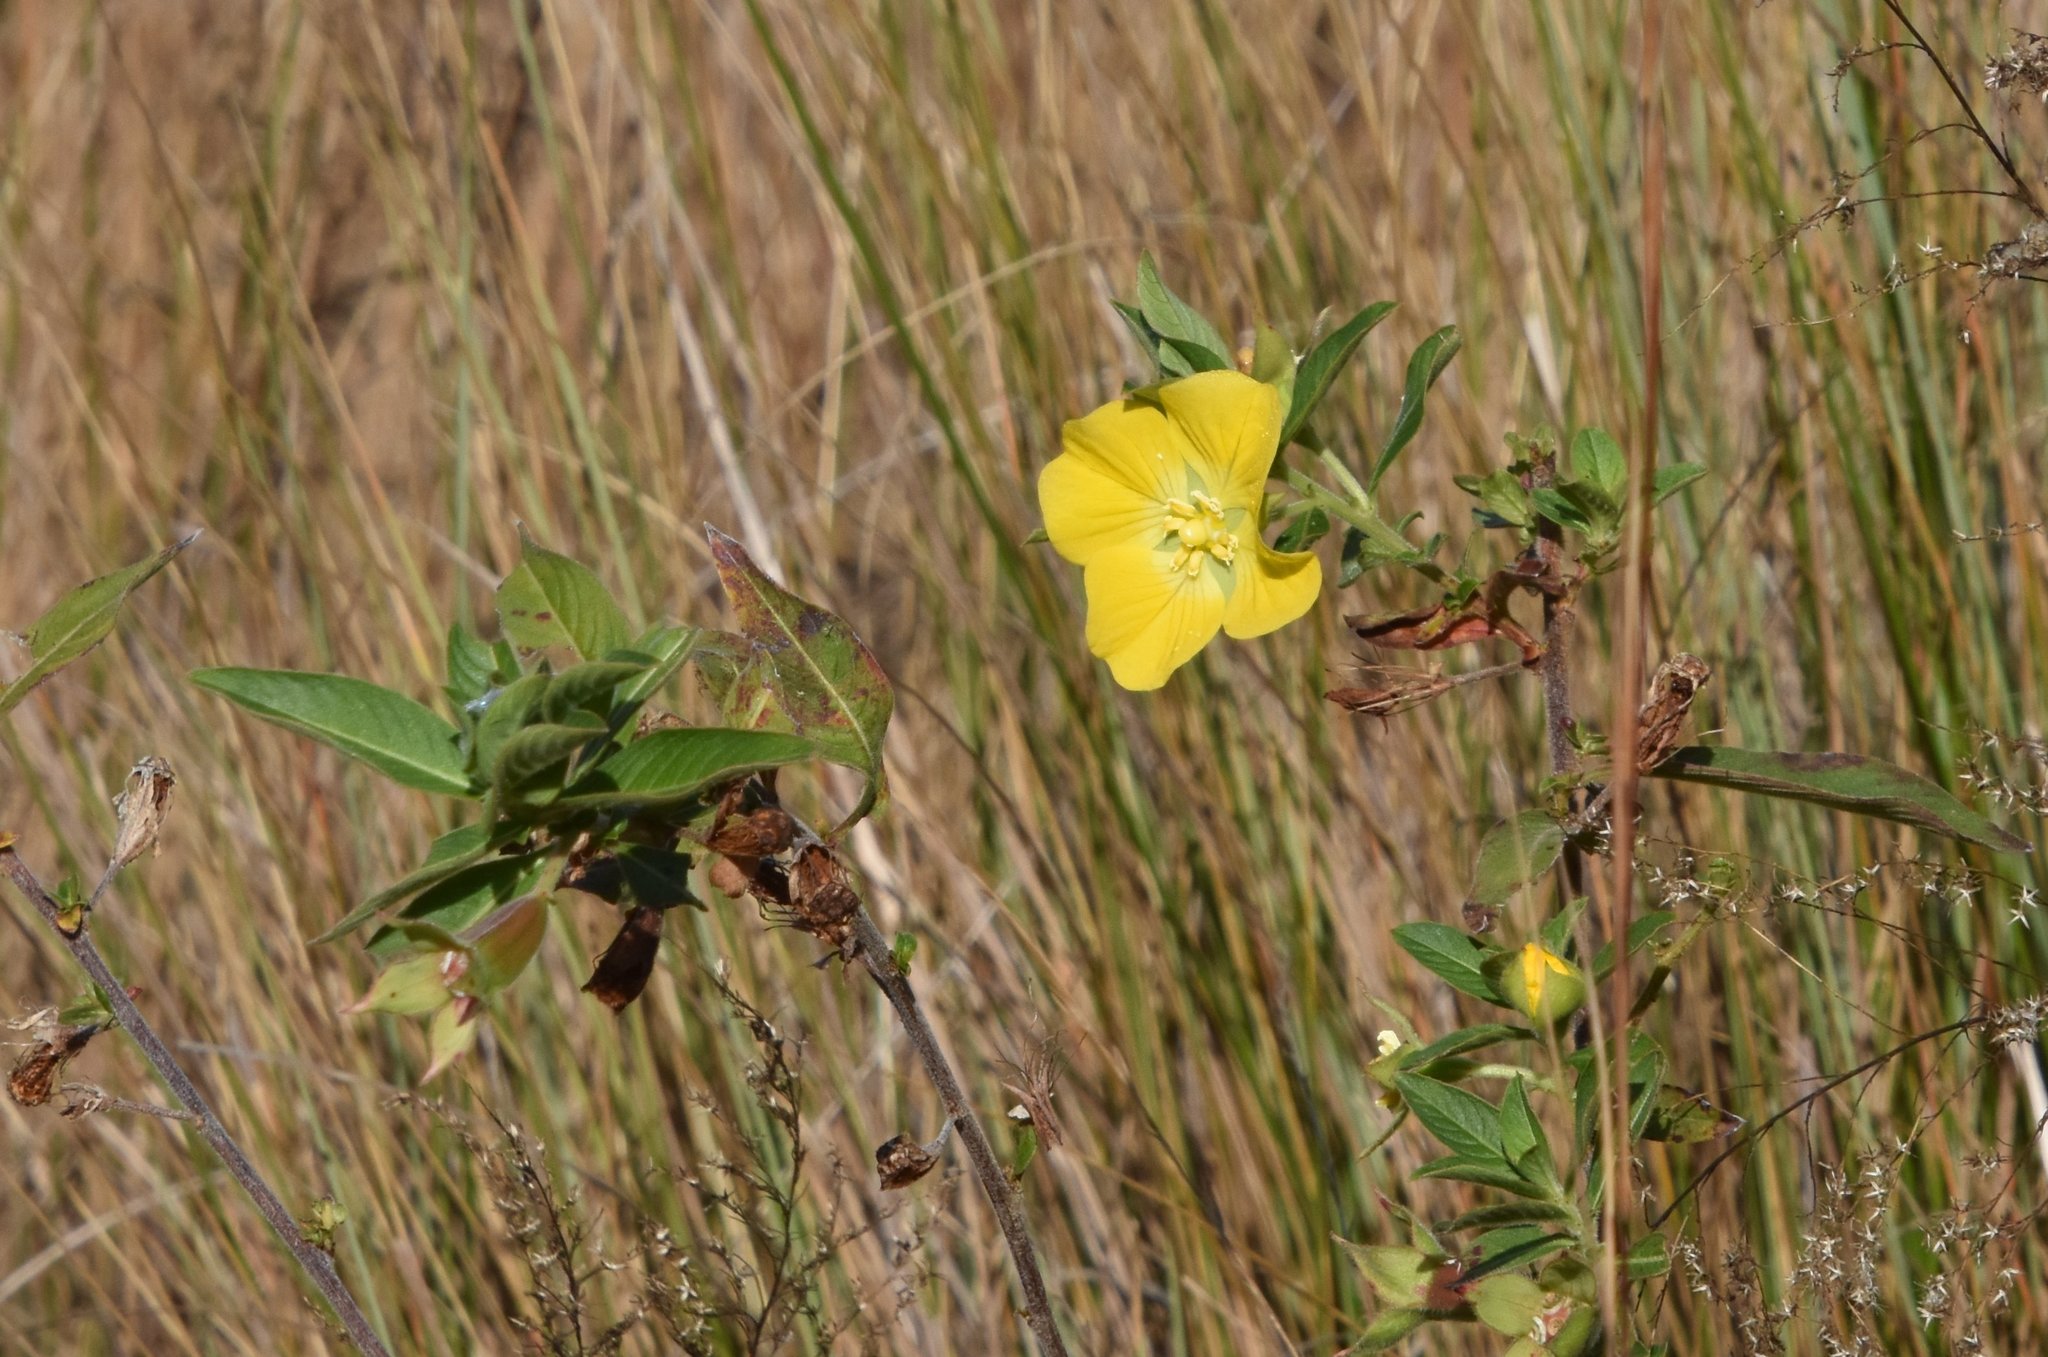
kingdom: Plantae
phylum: Tracheophyta
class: Magnoliopsida
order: Myrtales
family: Onagraceae
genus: Ludwigia
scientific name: Ludwigia peruviana
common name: Peruvian primrose-willow
